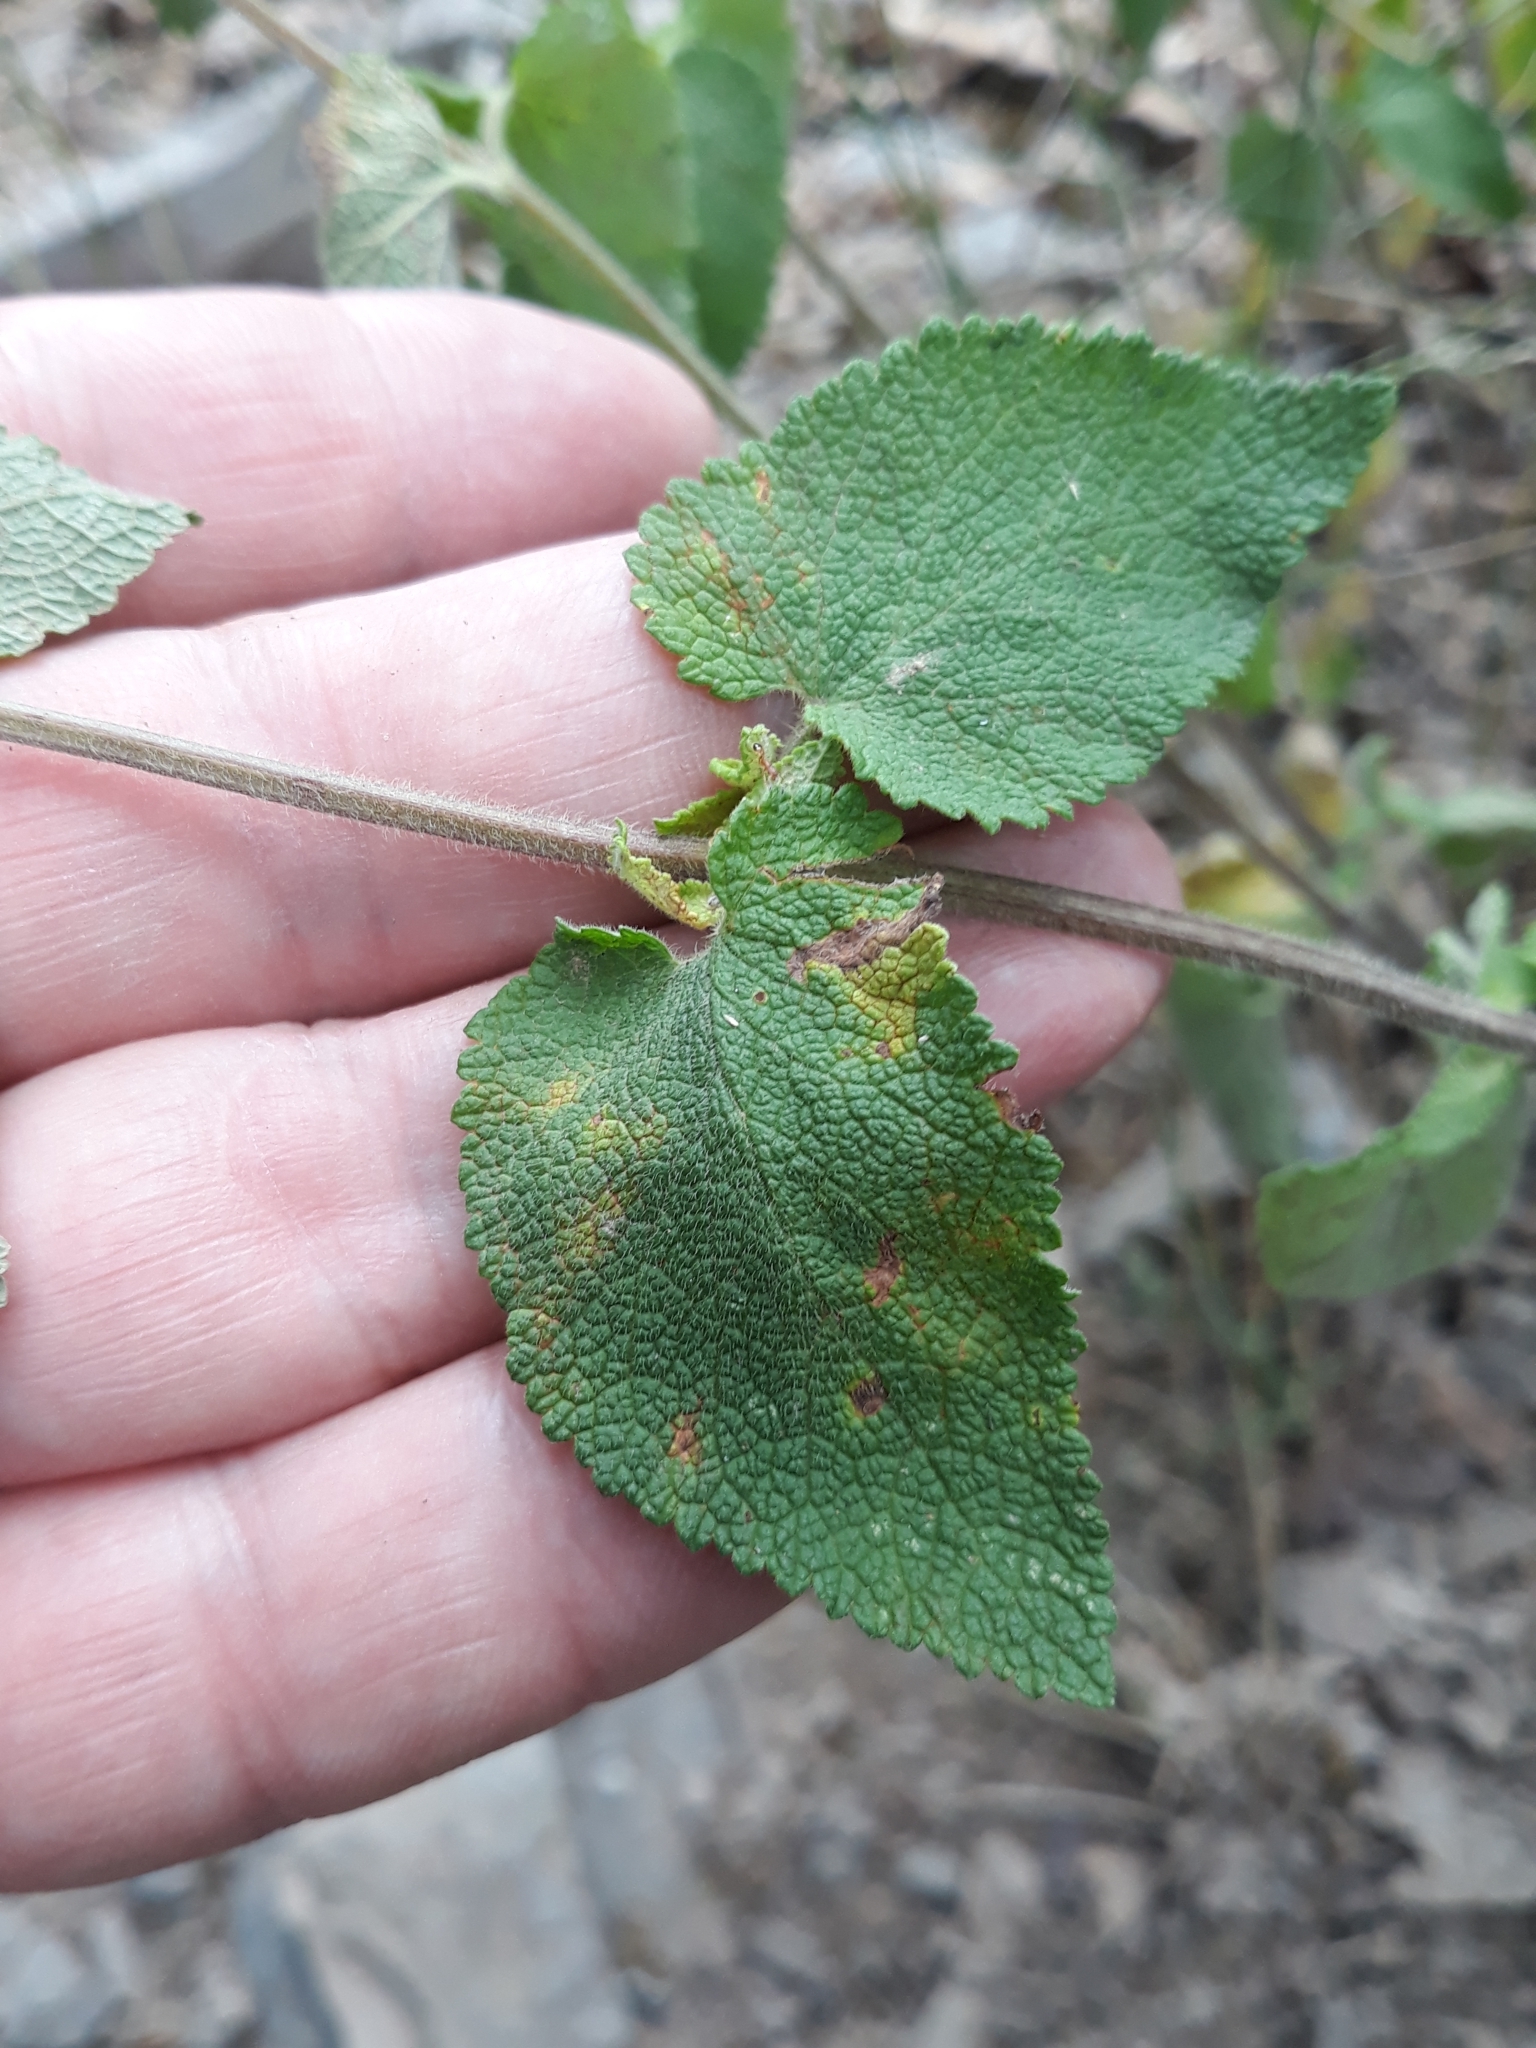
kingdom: Plantae
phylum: Tracheophyta
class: Magnoliopsida
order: Lamiales
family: Lamiaceae
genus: Teucrium
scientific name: Teucrium scorodonia
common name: Woodland germander
